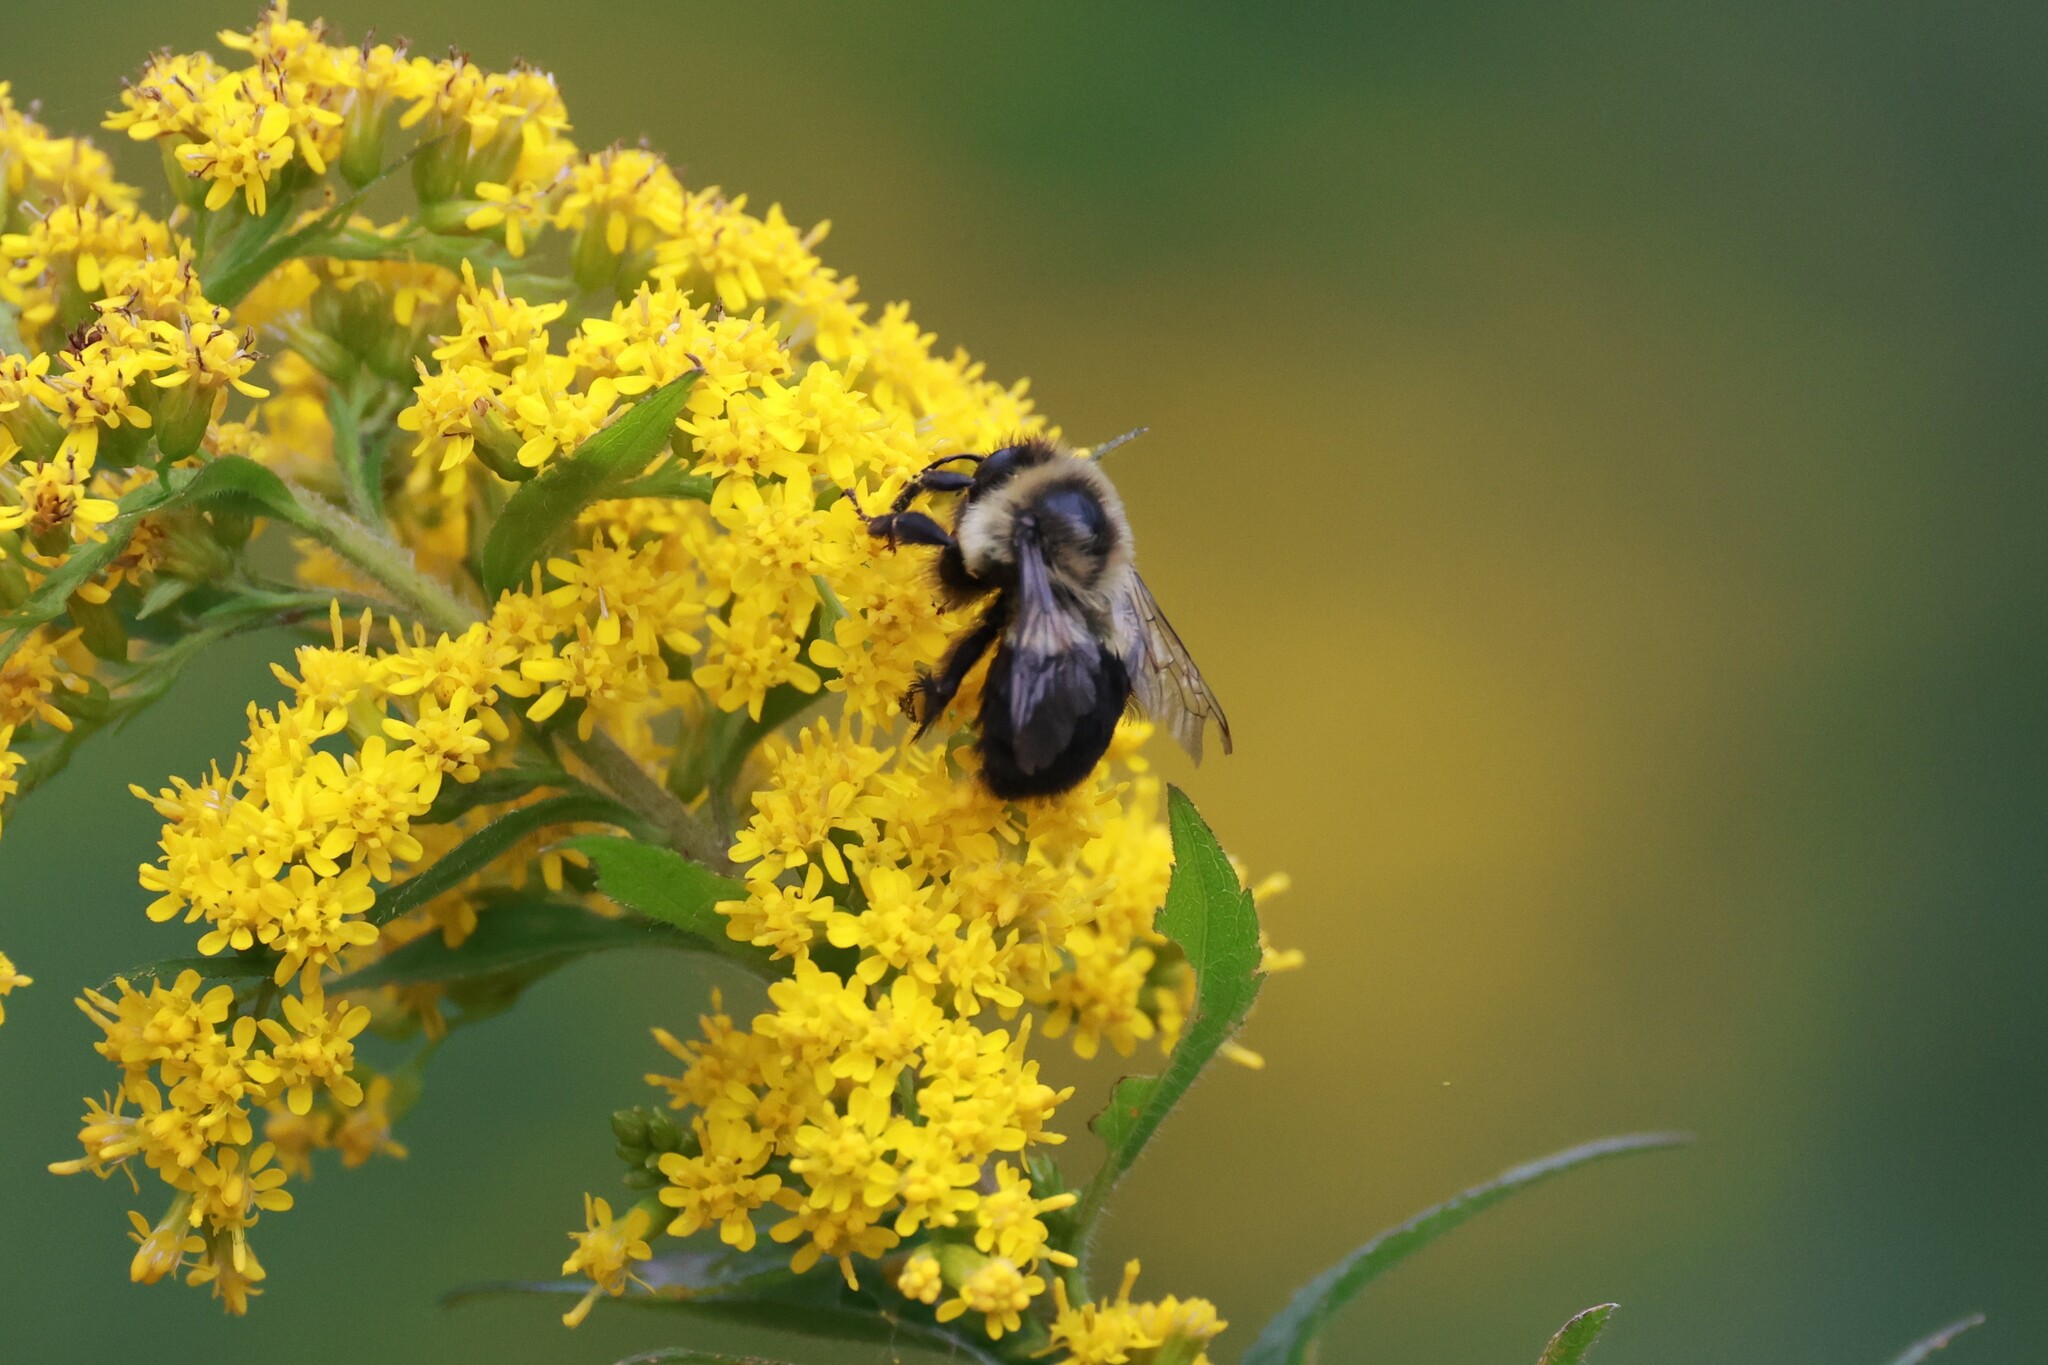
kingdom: Animalia
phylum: Arthropoda
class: Insecta
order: Hymenoptera
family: Apidae
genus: Bombus
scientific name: Bombus impatiens
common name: Common eastern bumble bee
